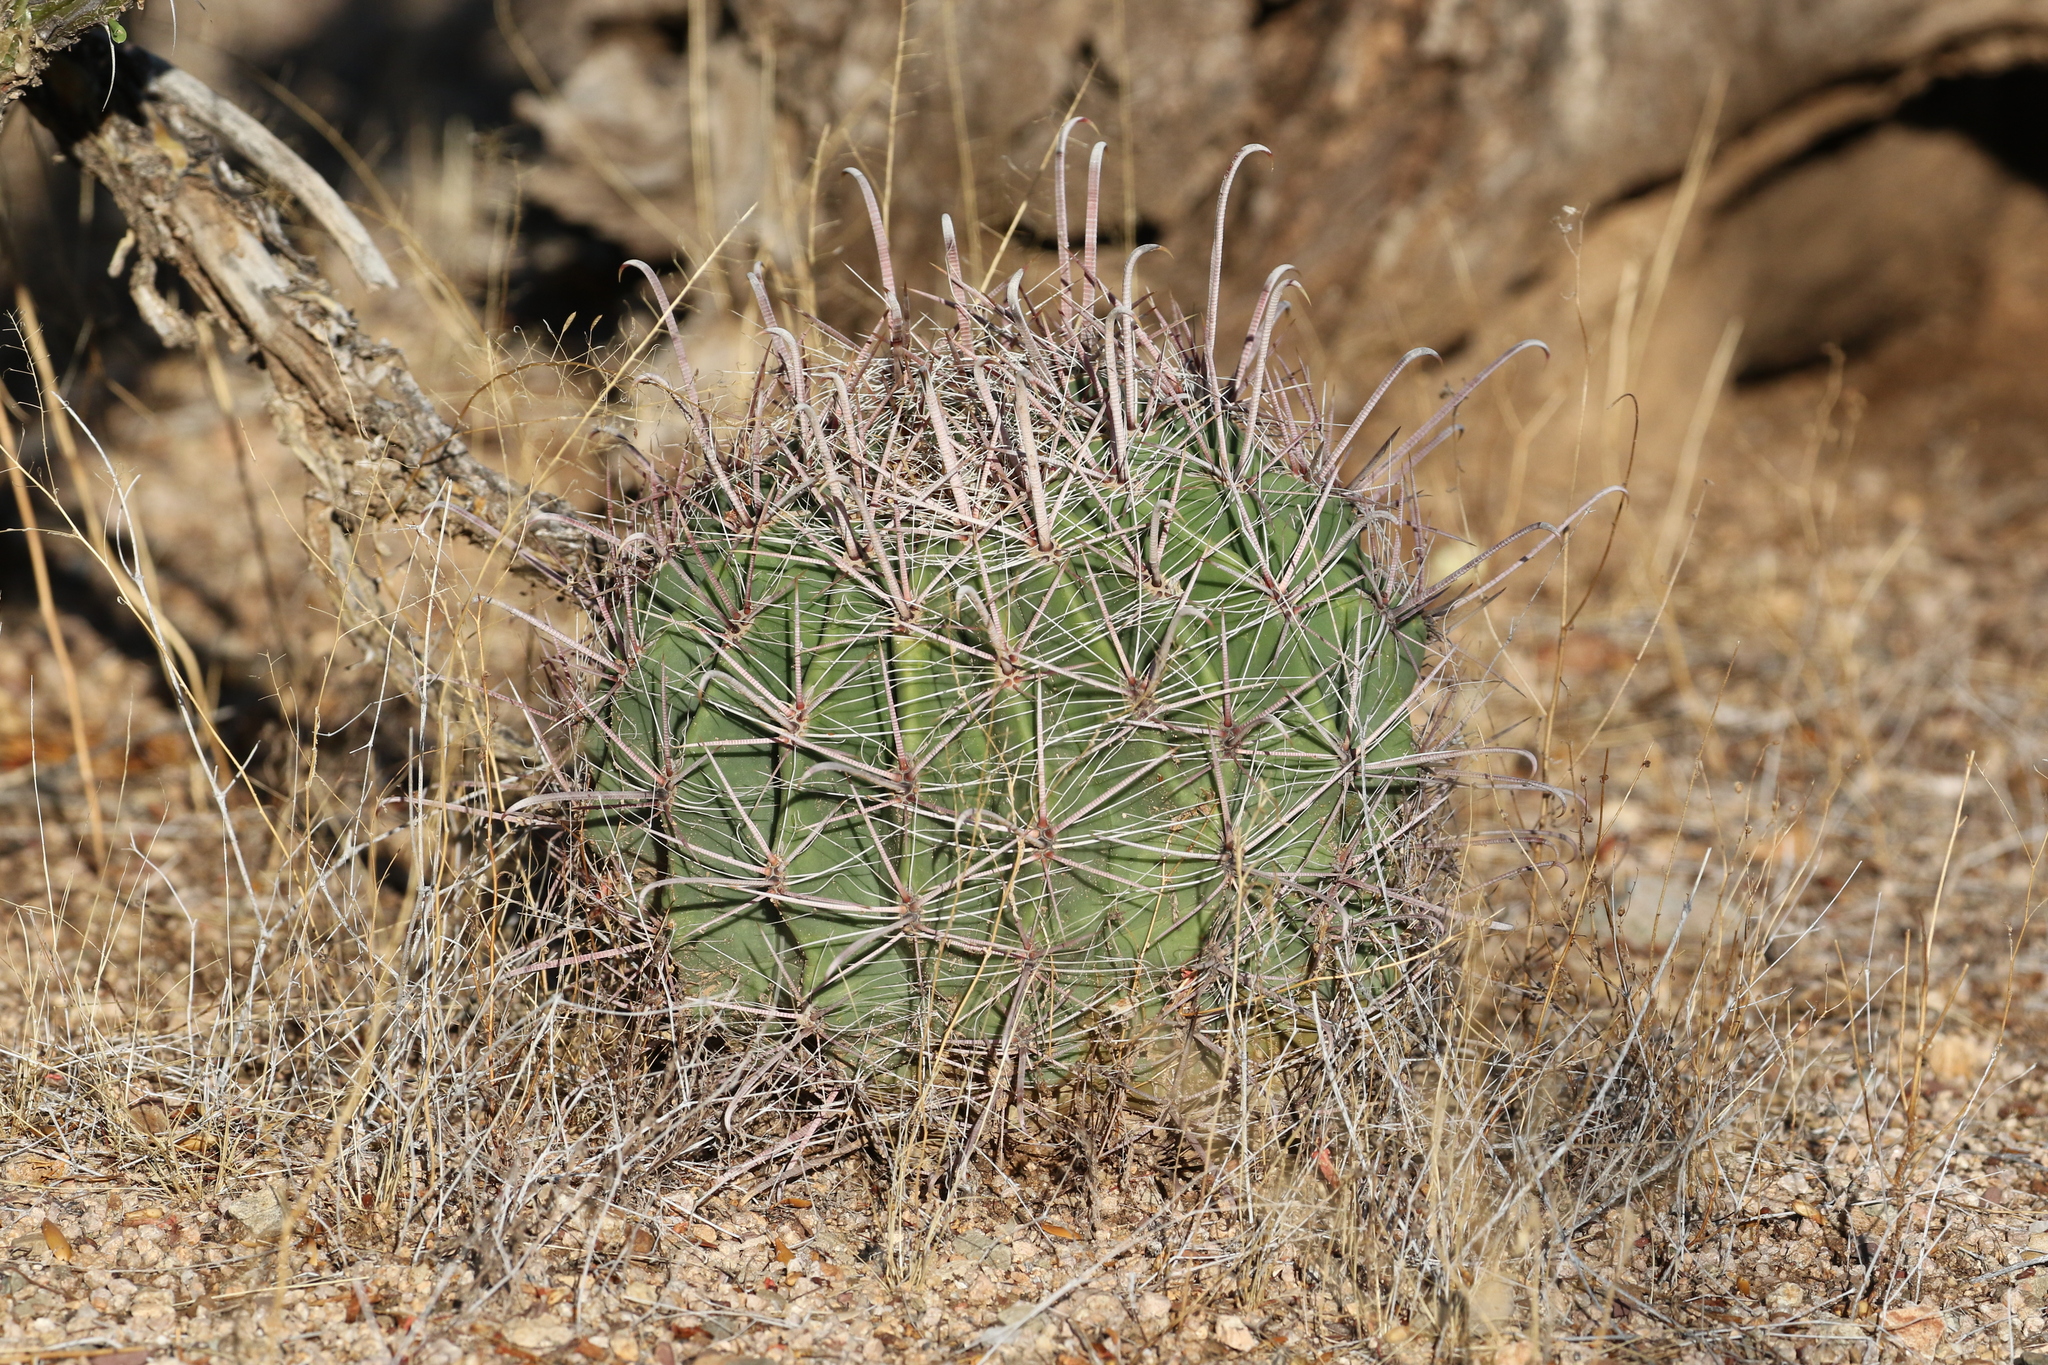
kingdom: Plantae
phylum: Tracheophyta
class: Magnoliopsida
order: Caryophyllales
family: Cactaceae
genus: Ferocactus
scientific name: Ferocactus wislizeni
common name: Candy barrel cactus
